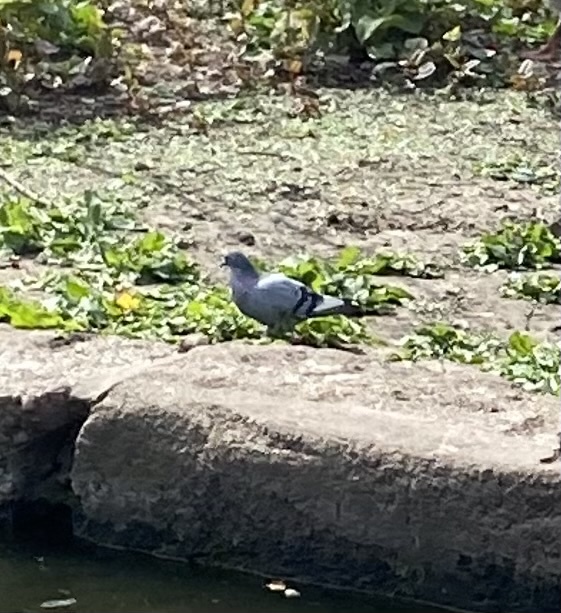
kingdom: Animalia
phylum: Chordata
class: Aves
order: Columbiformes
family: Columbidae
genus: Columba
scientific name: Columba livia
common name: Rock pigeon
